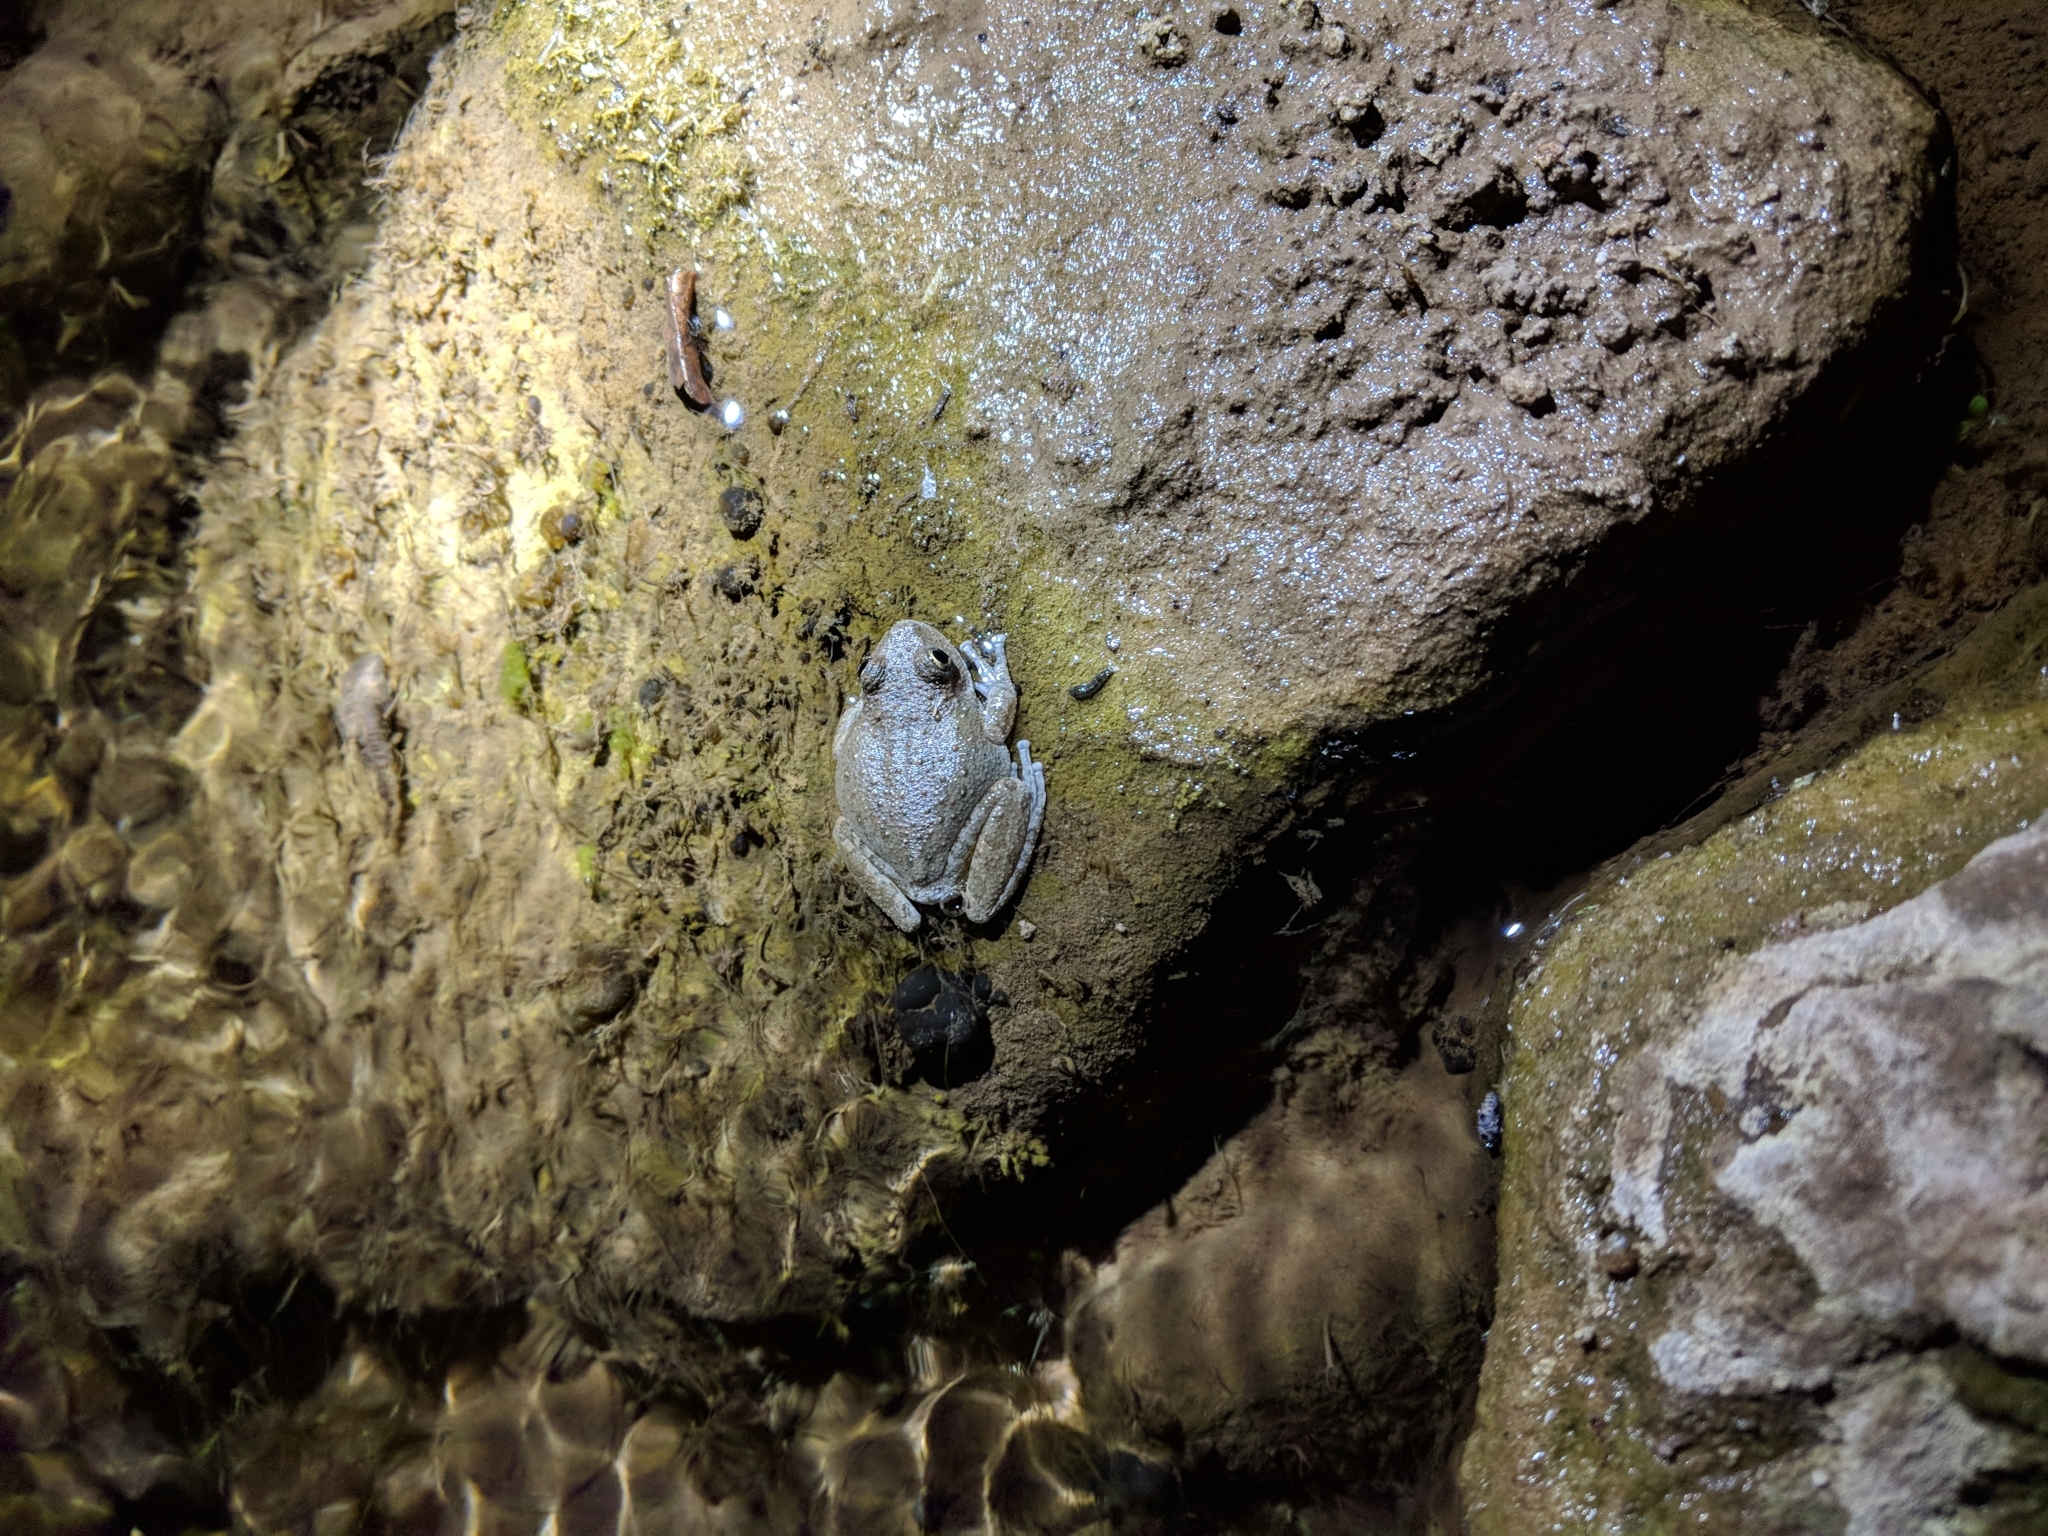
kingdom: Animalia
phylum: Chordata
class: Amphibia
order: Anura
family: Hylidae
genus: Pseudacris
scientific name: Pseudacris cadaverina
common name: California chorus frog
